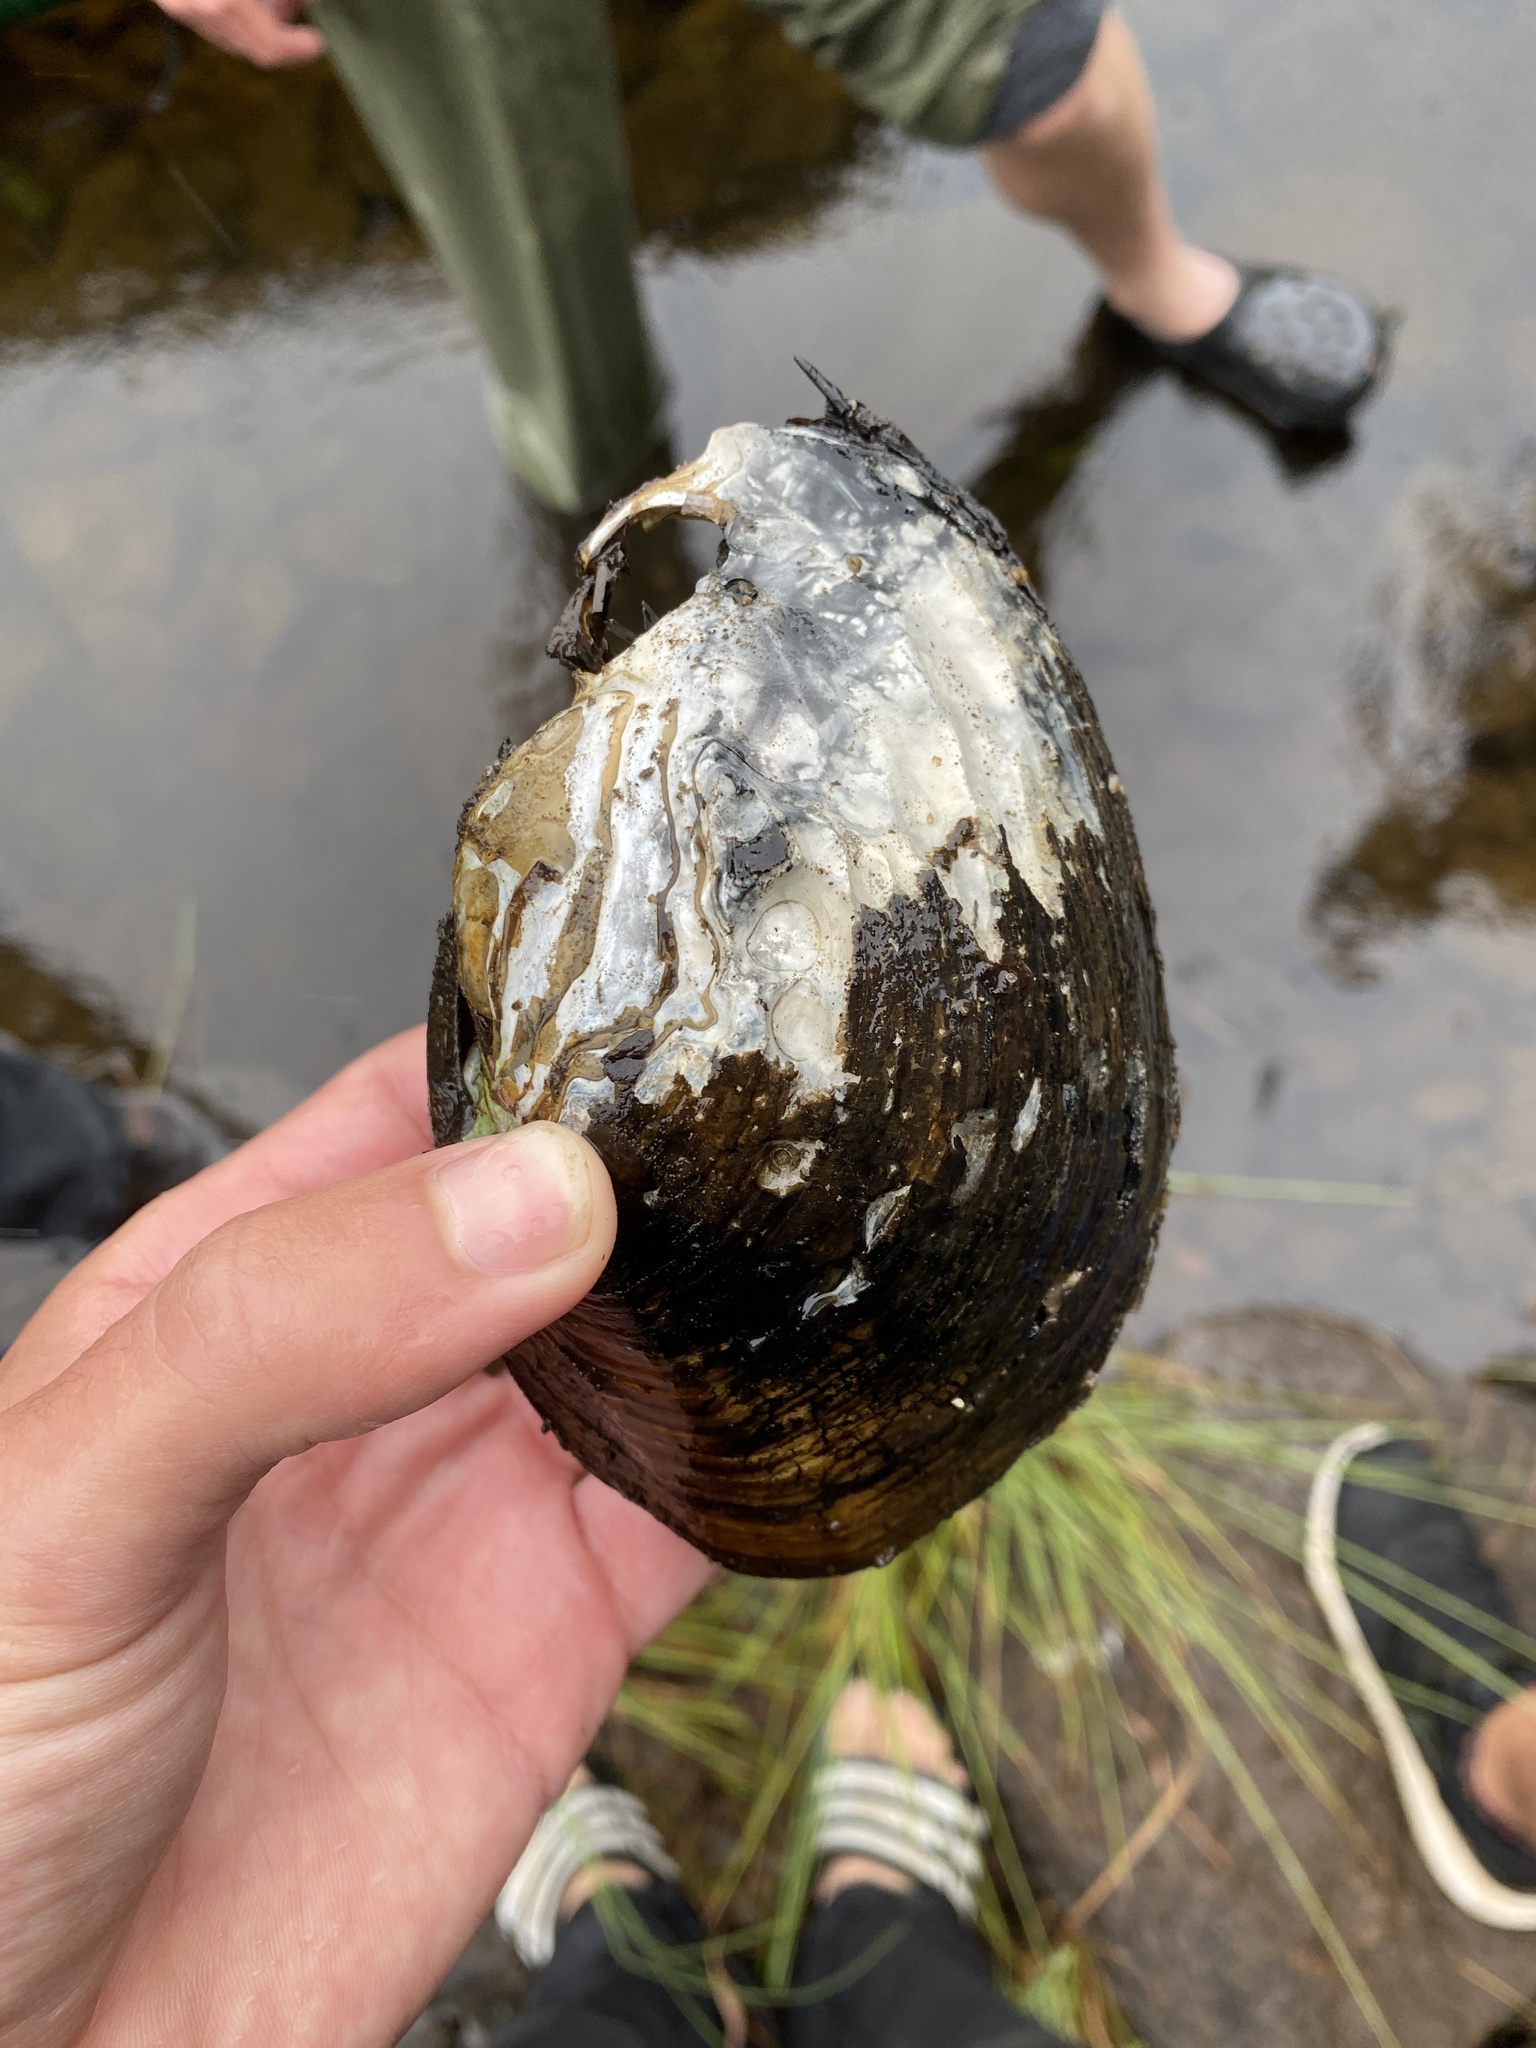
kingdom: Animalia
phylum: Mollusca
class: Bivalvia
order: Unionida
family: Unionidae
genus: Lampsilis
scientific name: Lampsilis cardium
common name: Plain pocketbook
